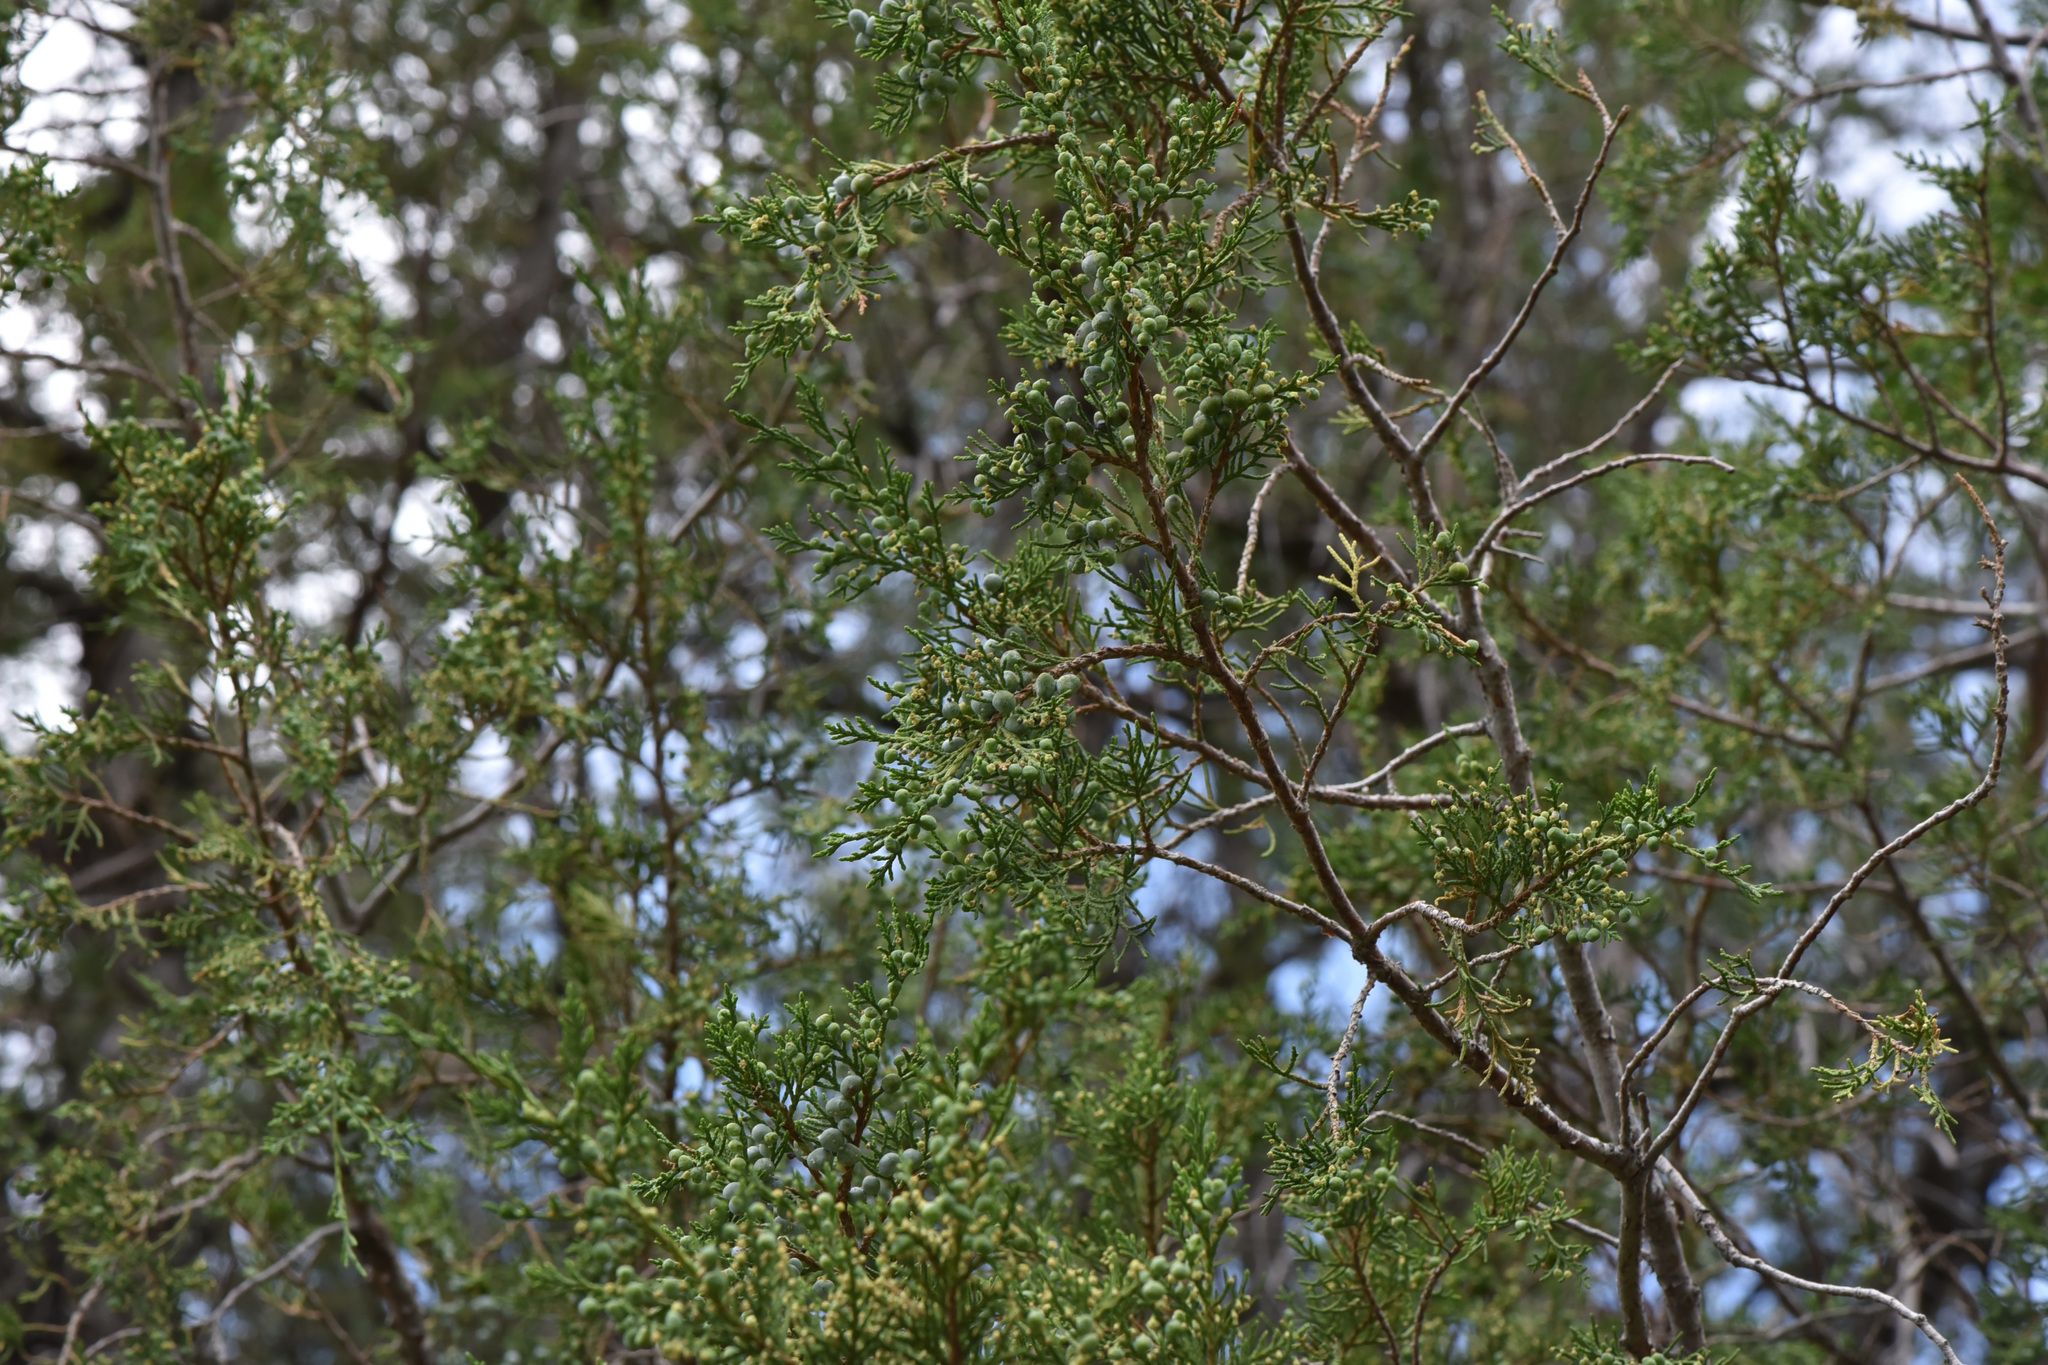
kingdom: Plantae
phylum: Tracheophyta
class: Pinopsida
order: Pinales
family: Cupressaceae
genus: Juniperus
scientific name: Juniperus scopulorum
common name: Rocky mountain juniper
